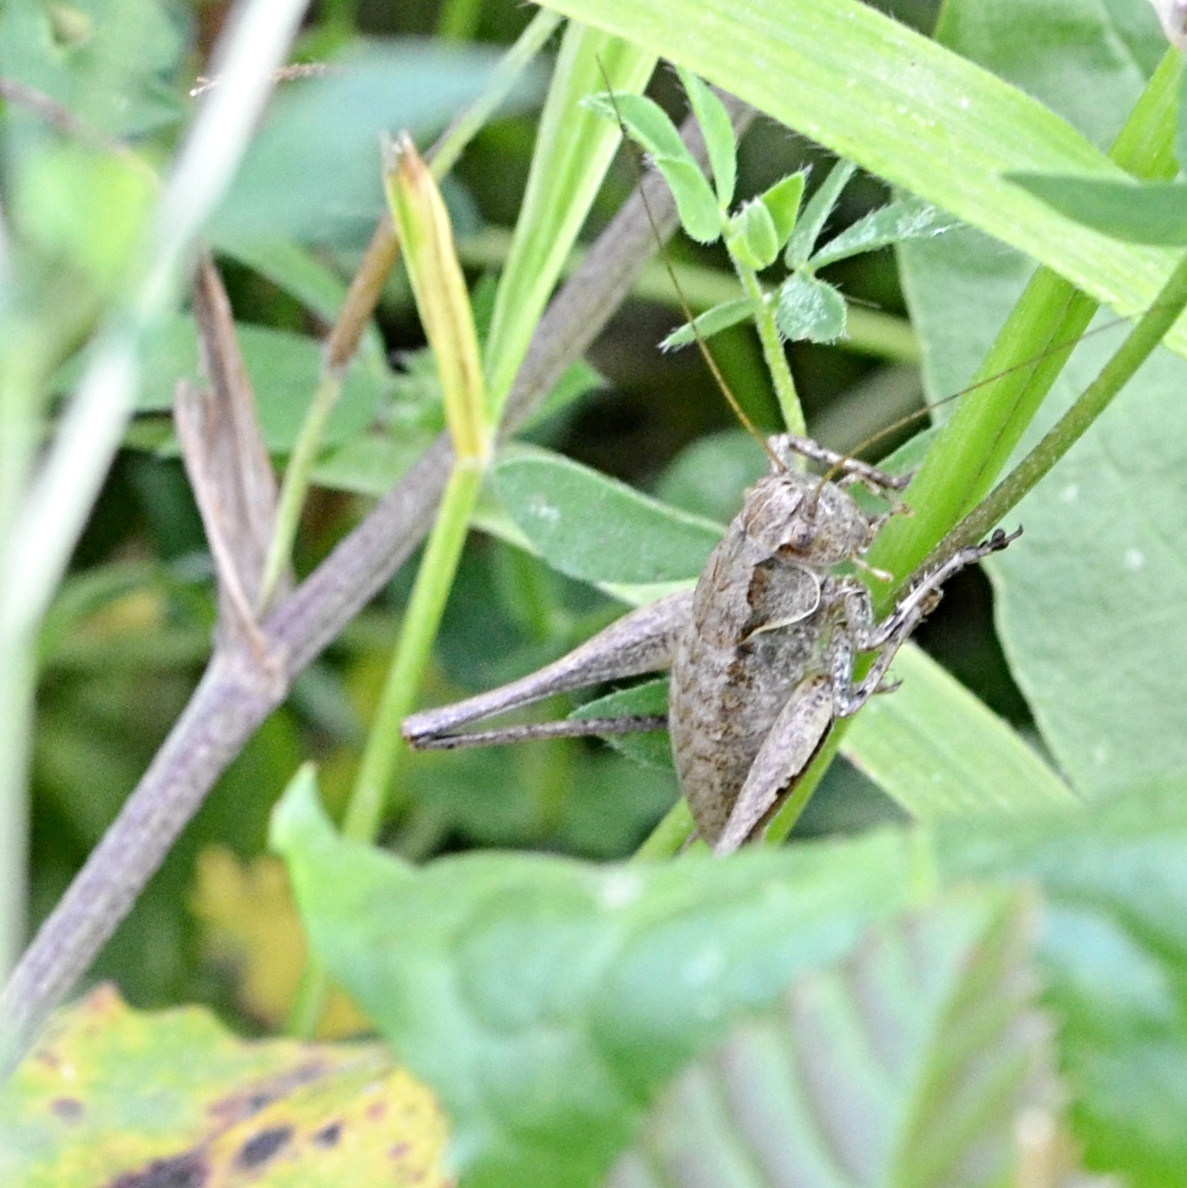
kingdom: Animalia
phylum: Arthropoda
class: Insecta
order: Orthoptera
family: Tettigoniidae
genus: Pholidoptera
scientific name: Pholidoptera griseoaptera
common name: Dark bush-cricket
